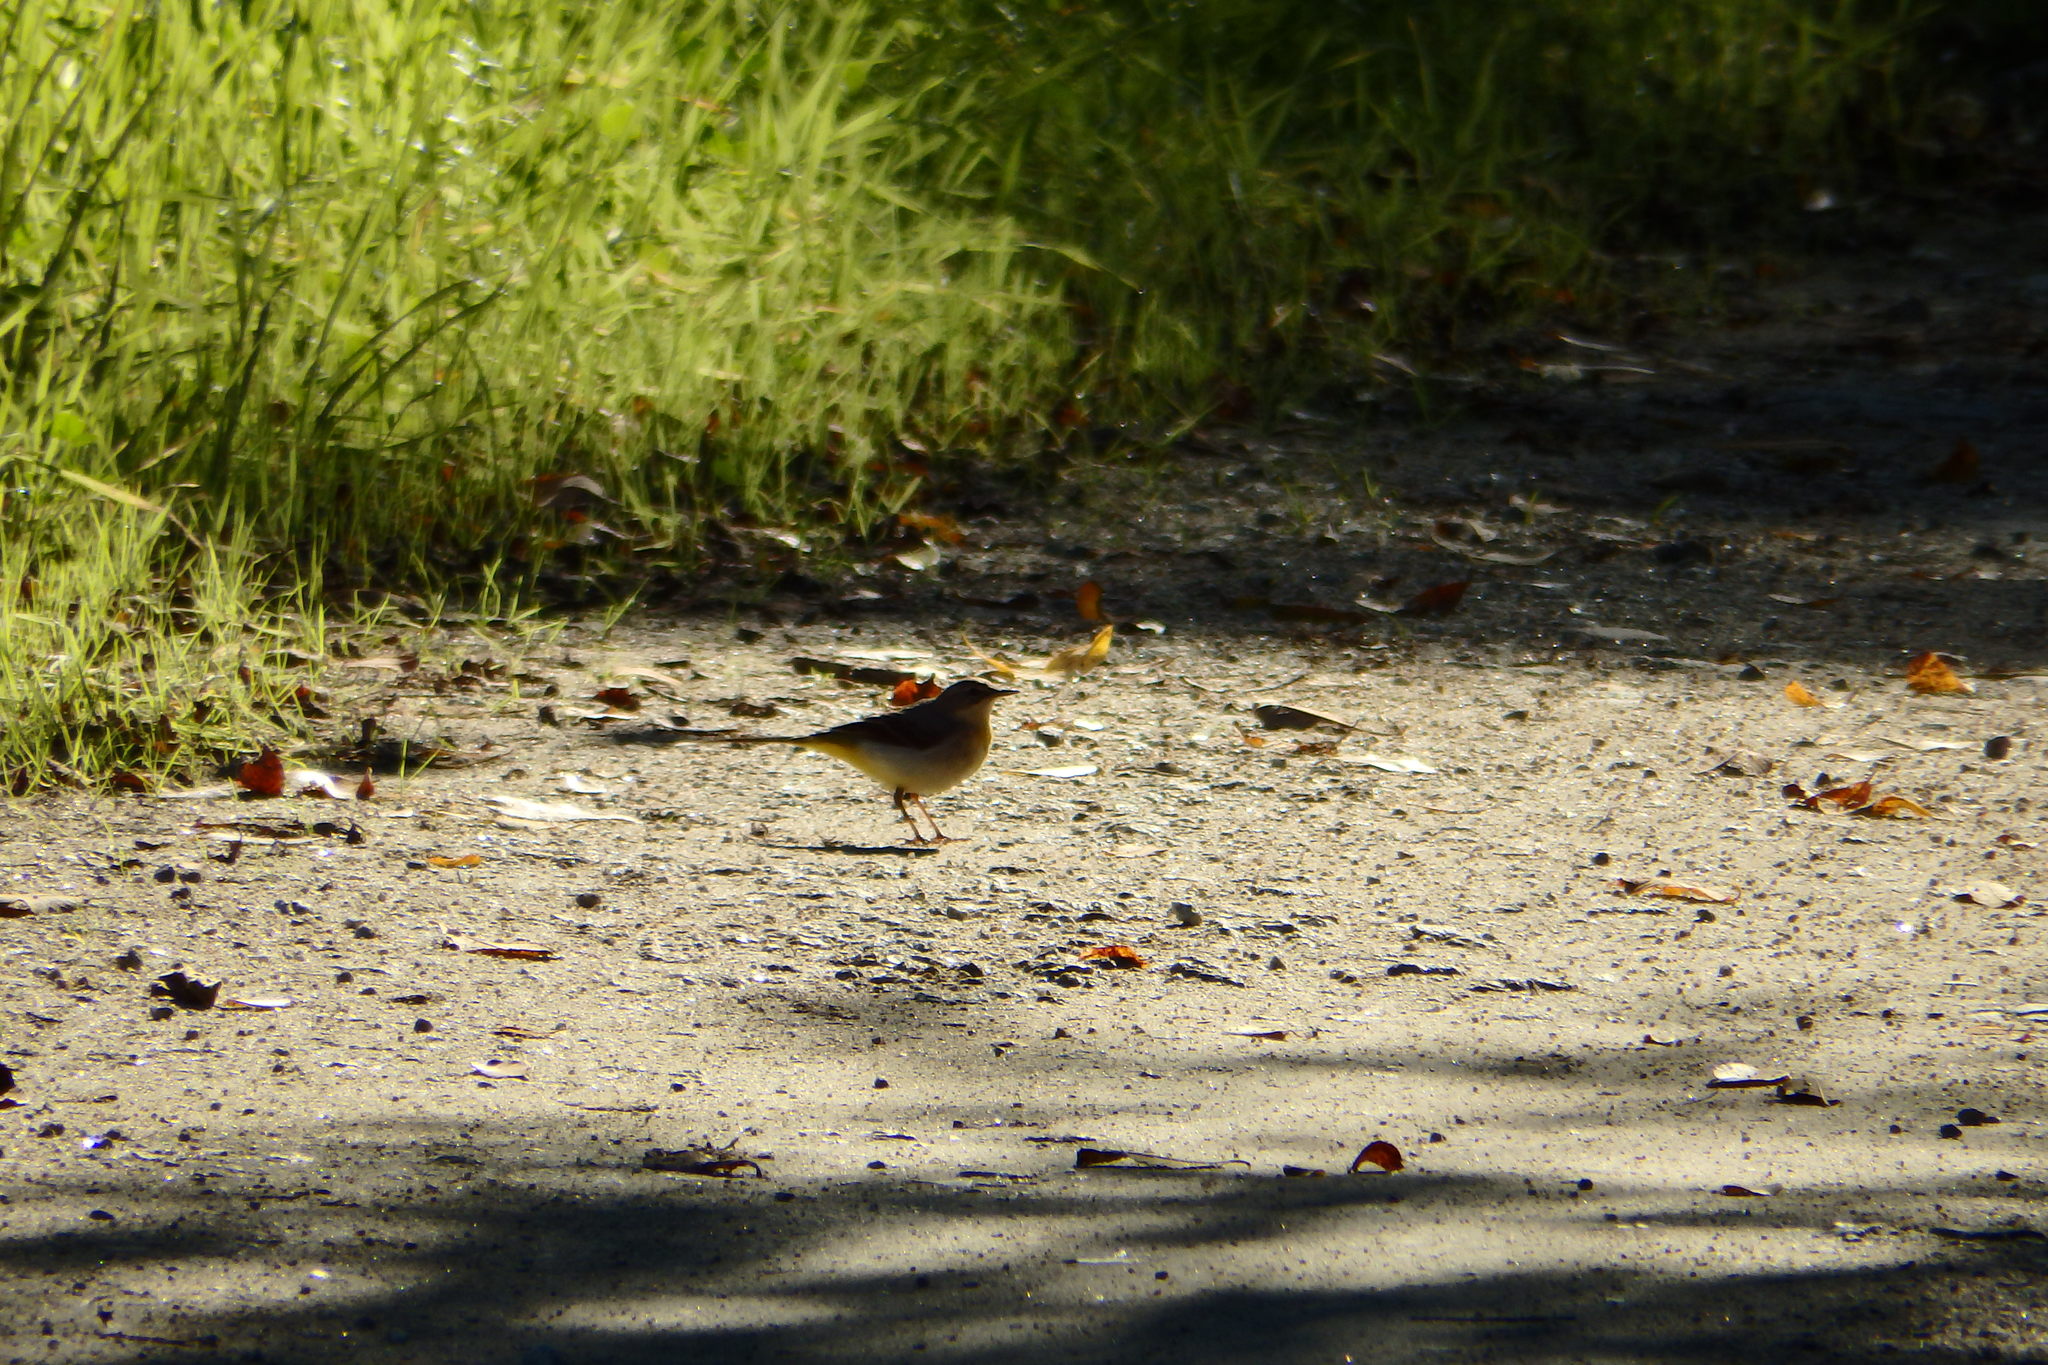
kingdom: Animalia
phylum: Chordata
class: Aves
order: Passeriformes
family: Motacillidae
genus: Motacilla
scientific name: Motacilla cinerea
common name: Grey wagtail
